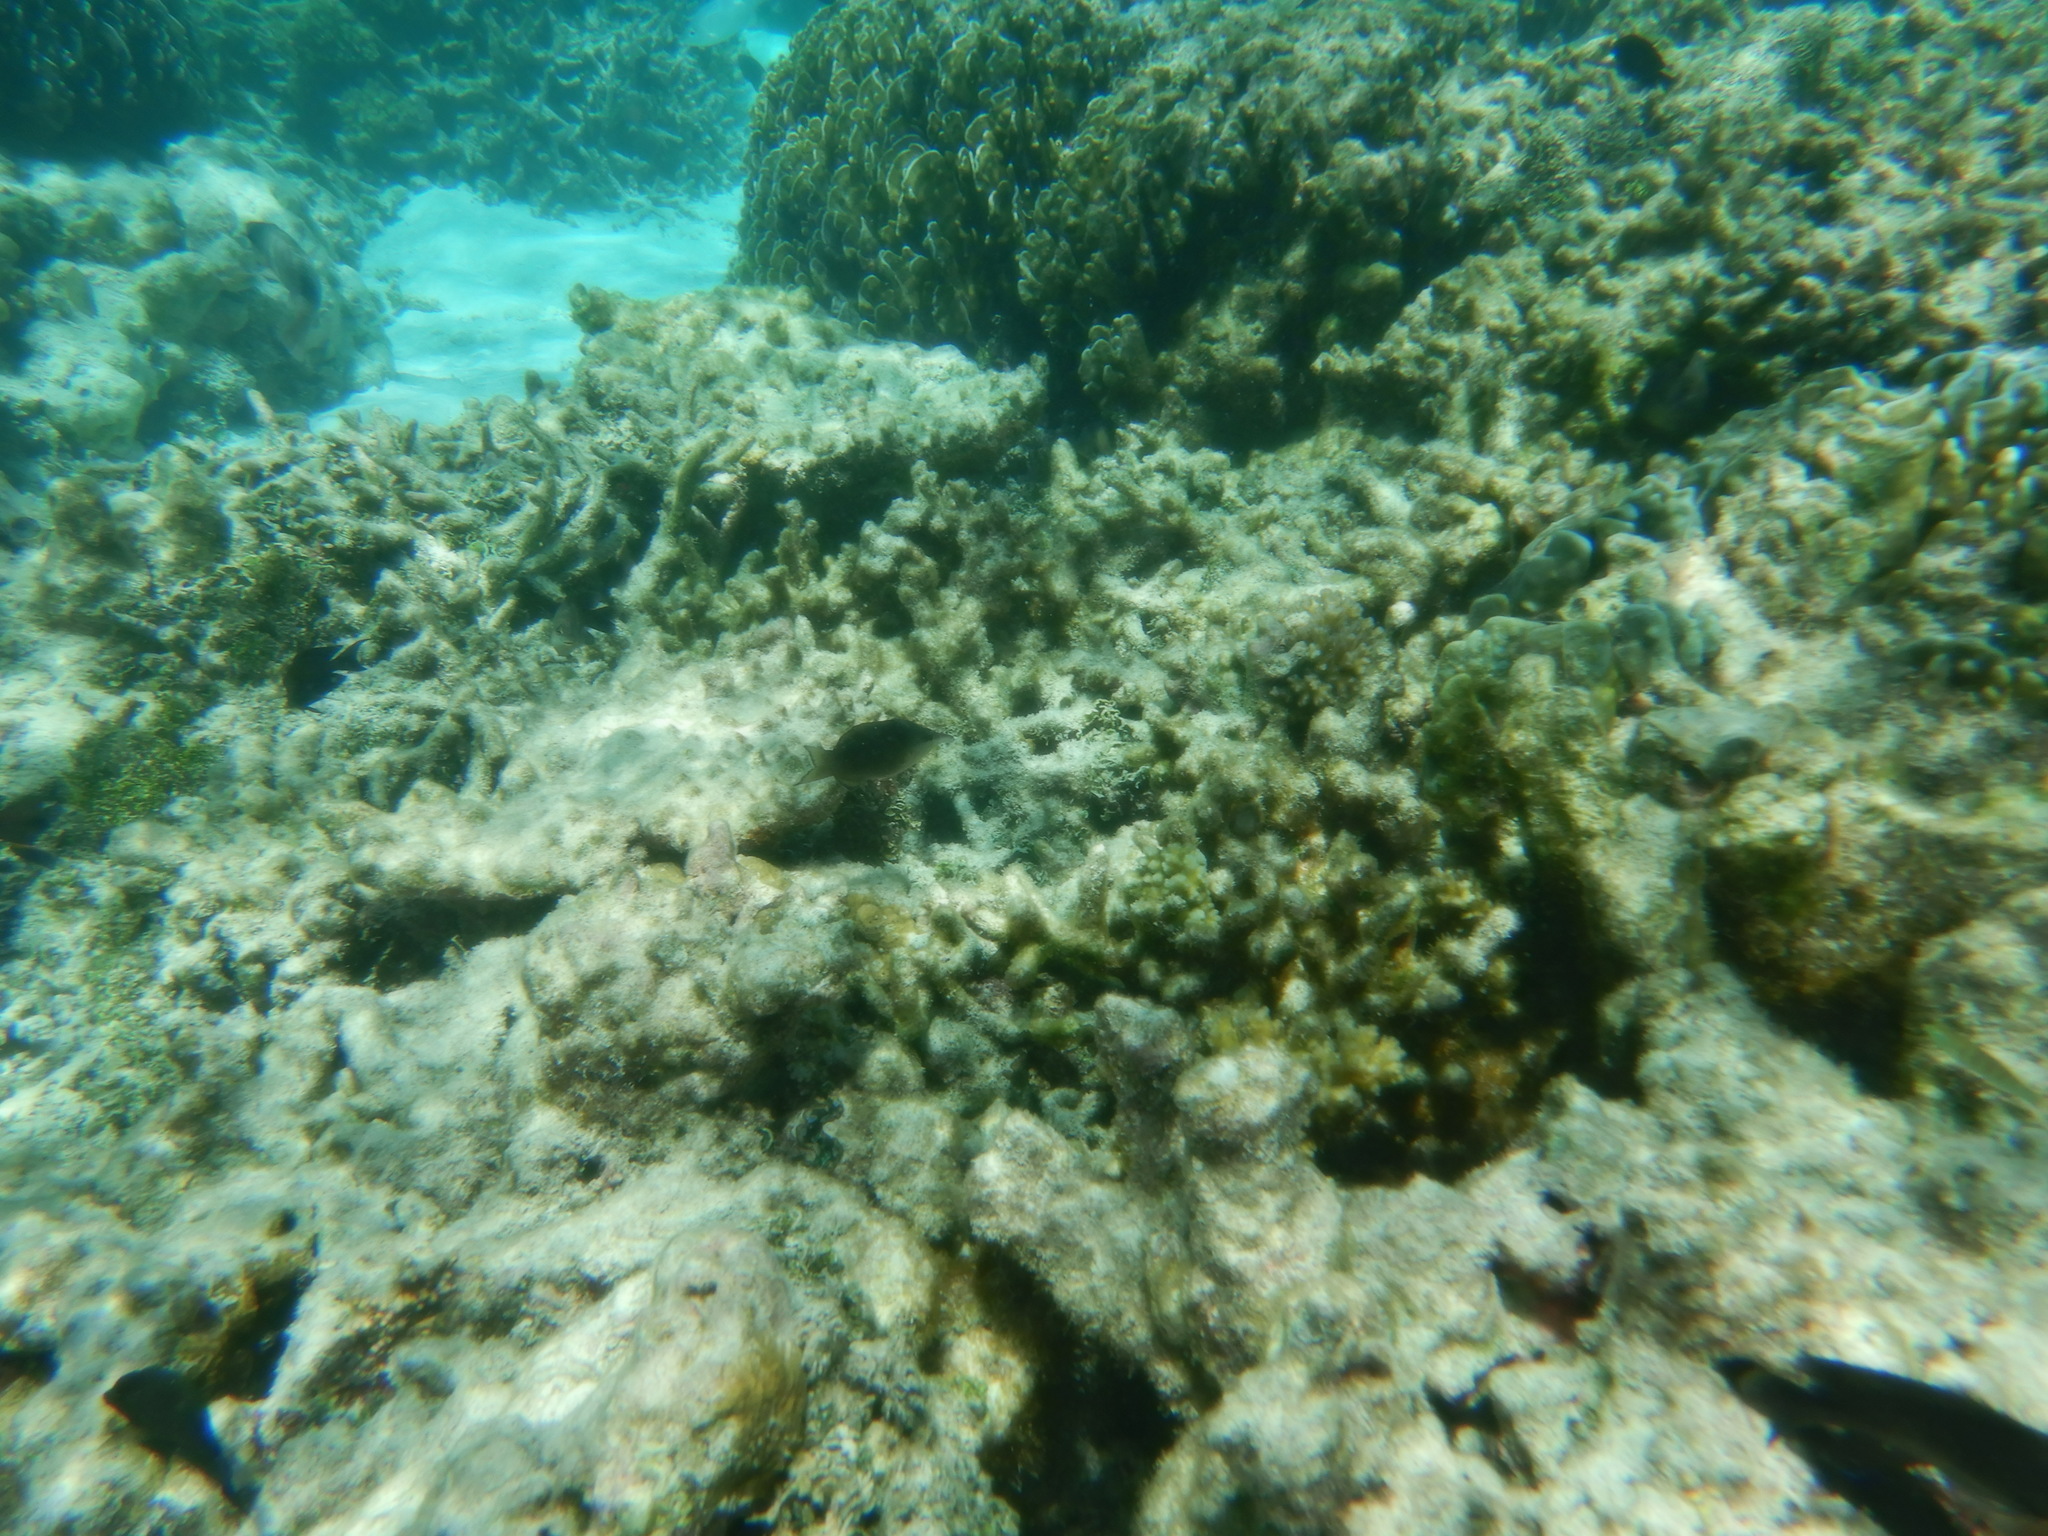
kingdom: Animalia
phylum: Chordata
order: Perciformes
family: Labridae
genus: Gomphosus
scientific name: Gomphosus caeruleus
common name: Bird wrasse
